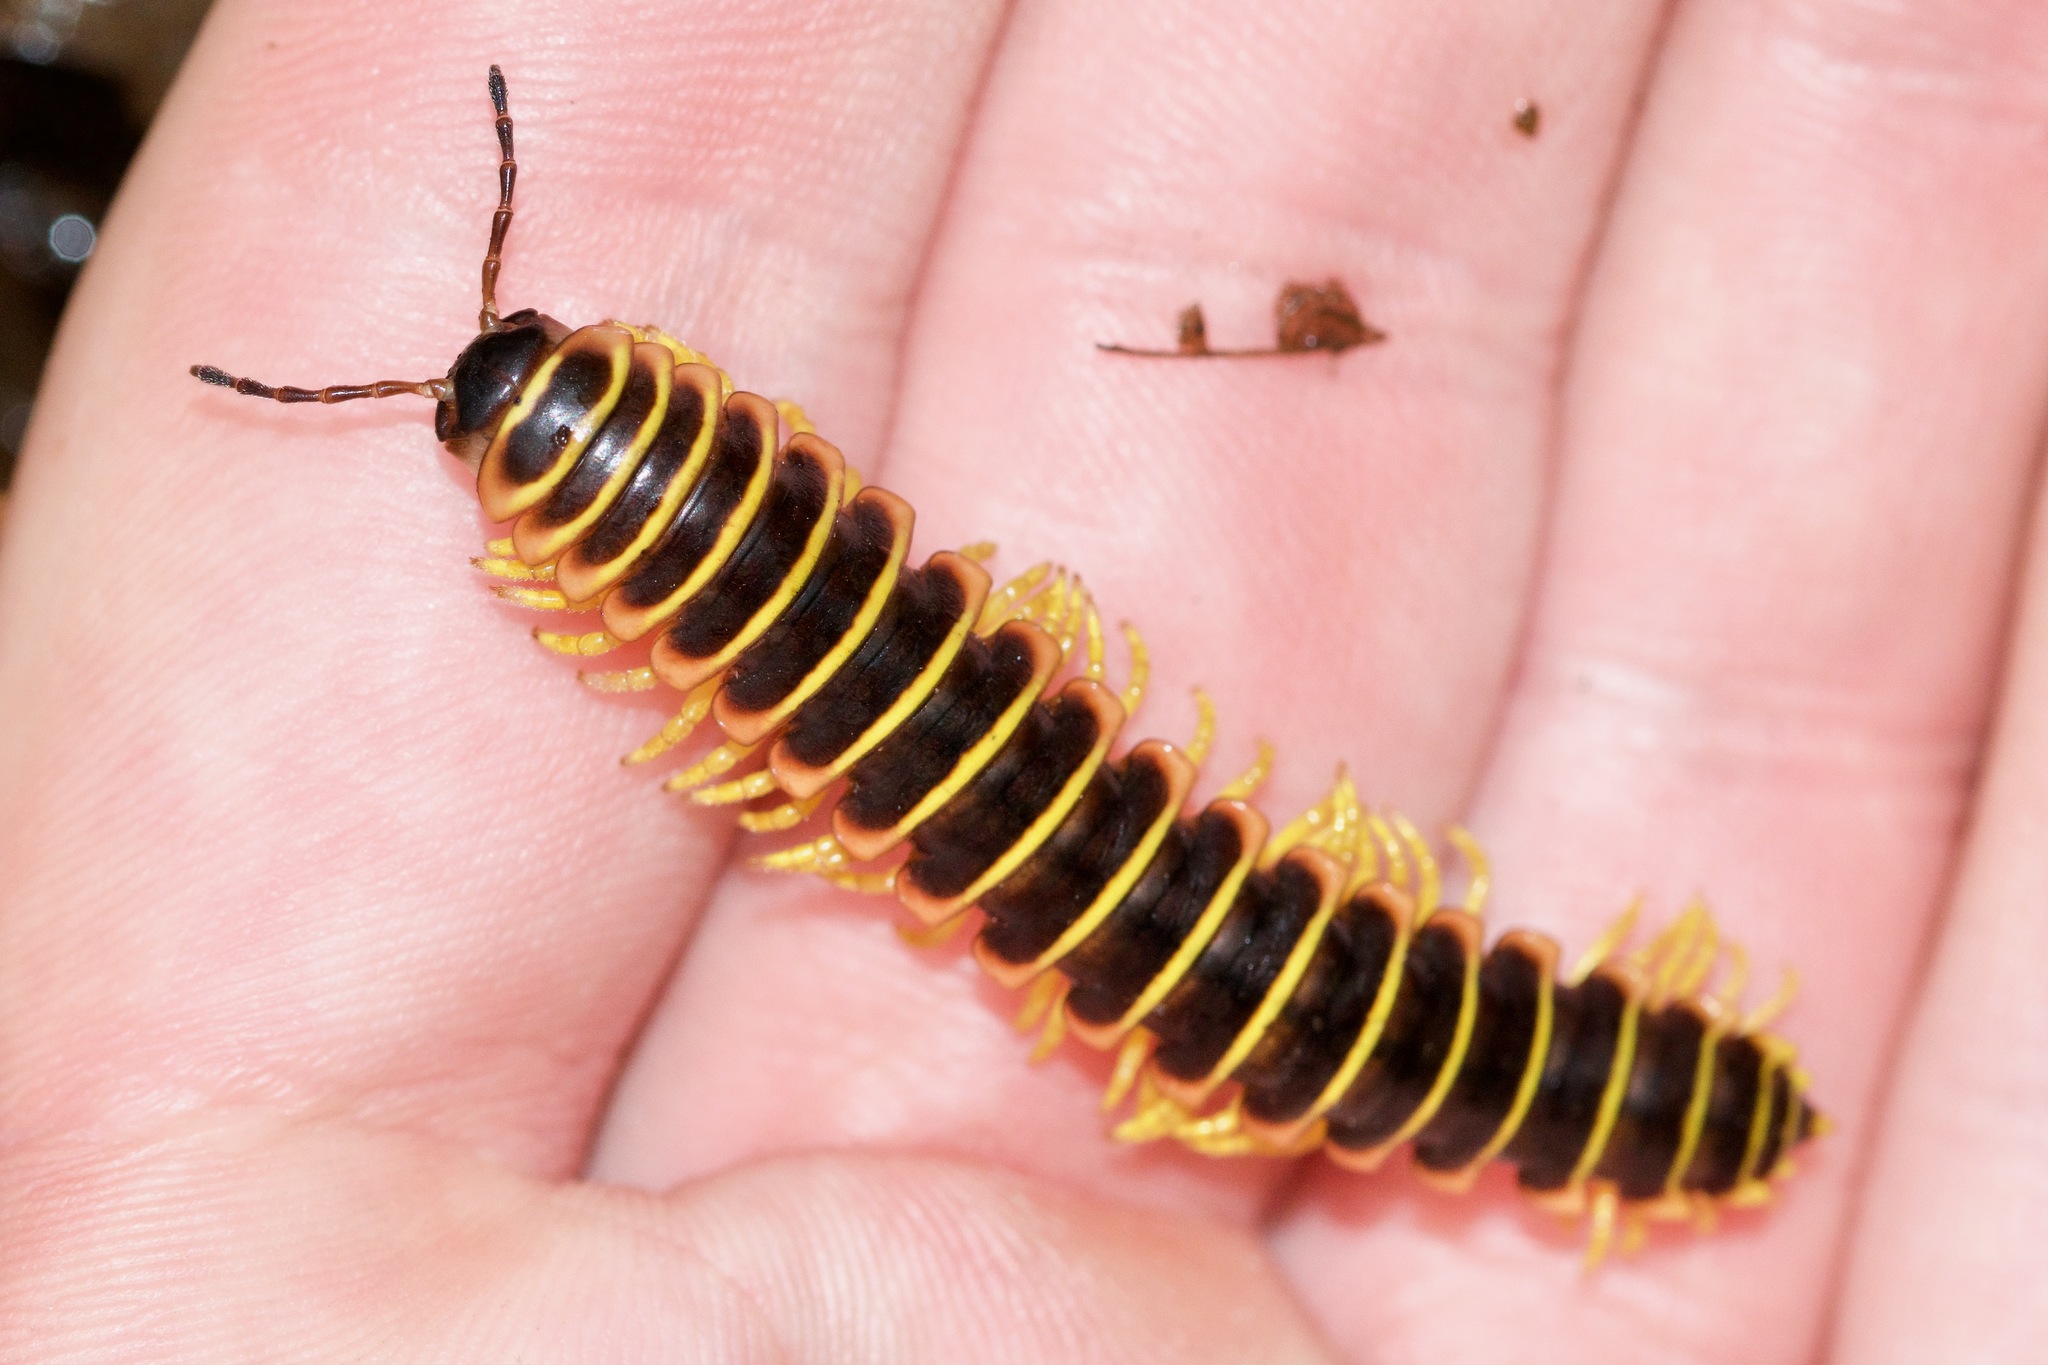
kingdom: Animalia
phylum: Arthropoda
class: Diplopoda
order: Polydesmida
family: Xystodesmidae
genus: Apheloria
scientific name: Apheloria virginiensis
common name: Black-and-gold flat millipede
